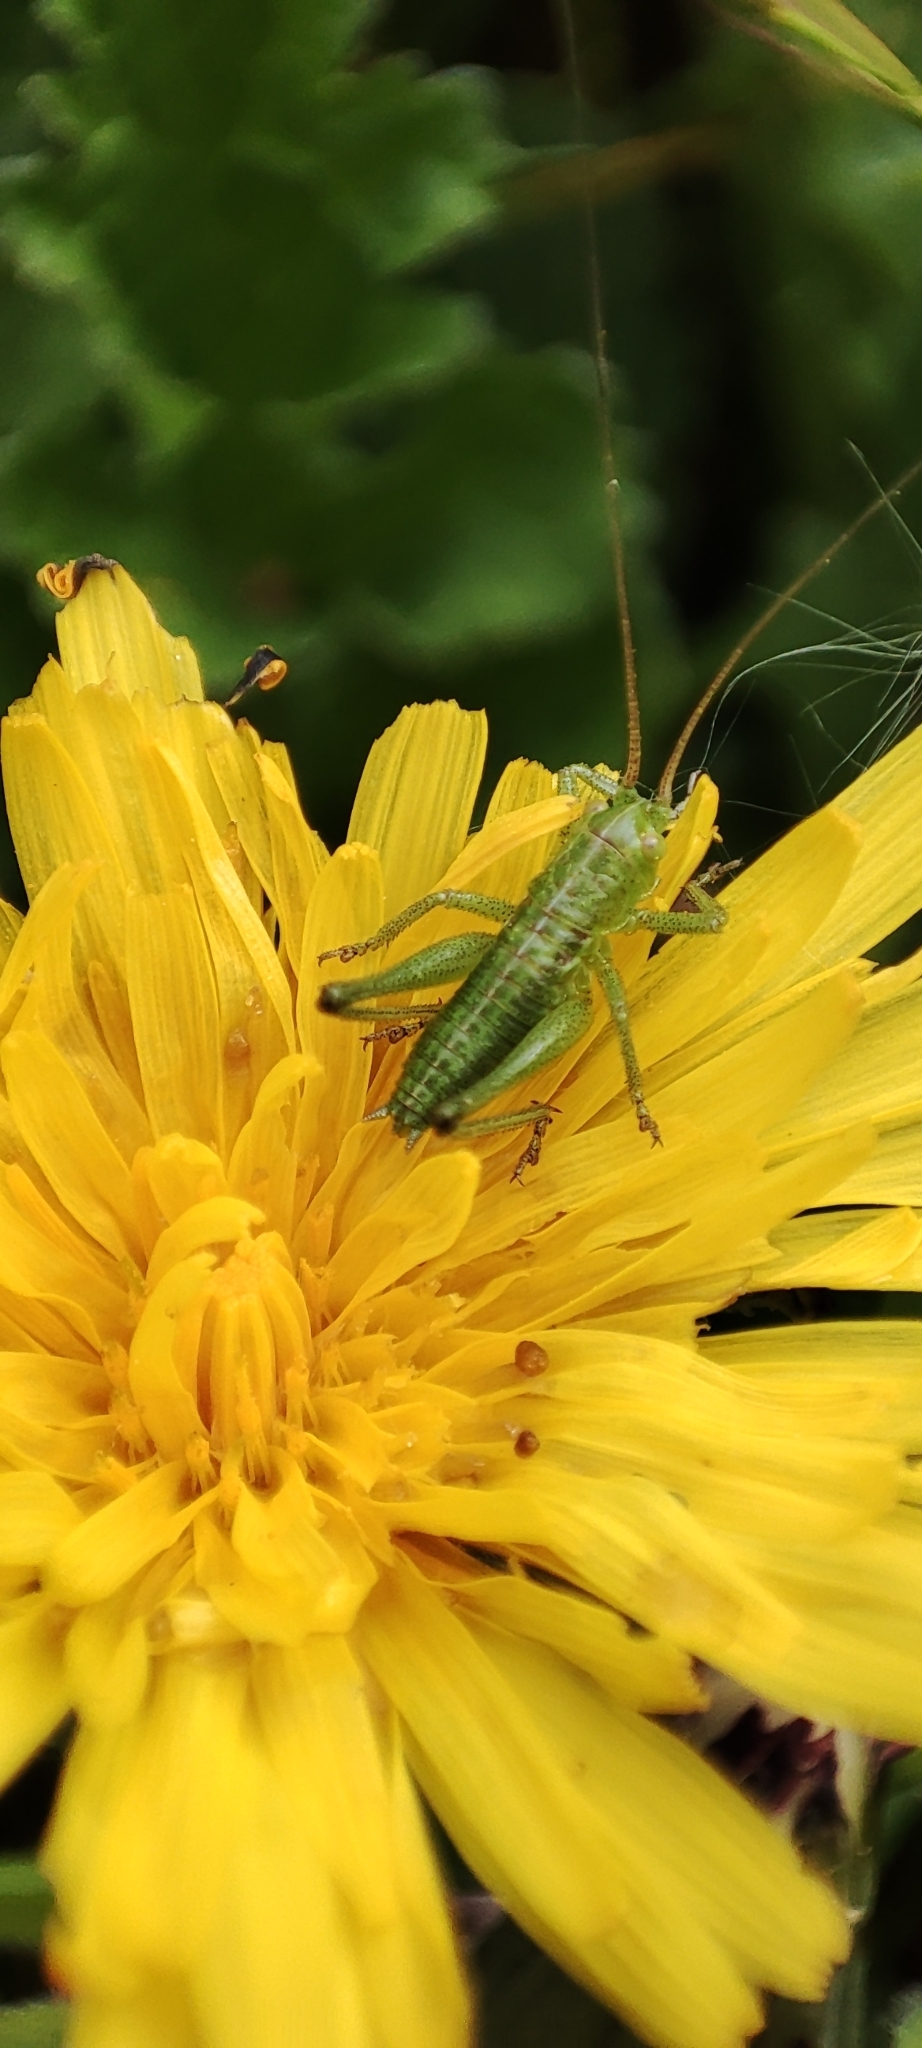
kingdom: Animalia
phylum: Arthropoda
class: Insecta
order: Orthoptera
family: Tettigoniidae
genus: Tettigonia
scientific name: Tettigonia viridissima
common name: Great green bush-cricket
